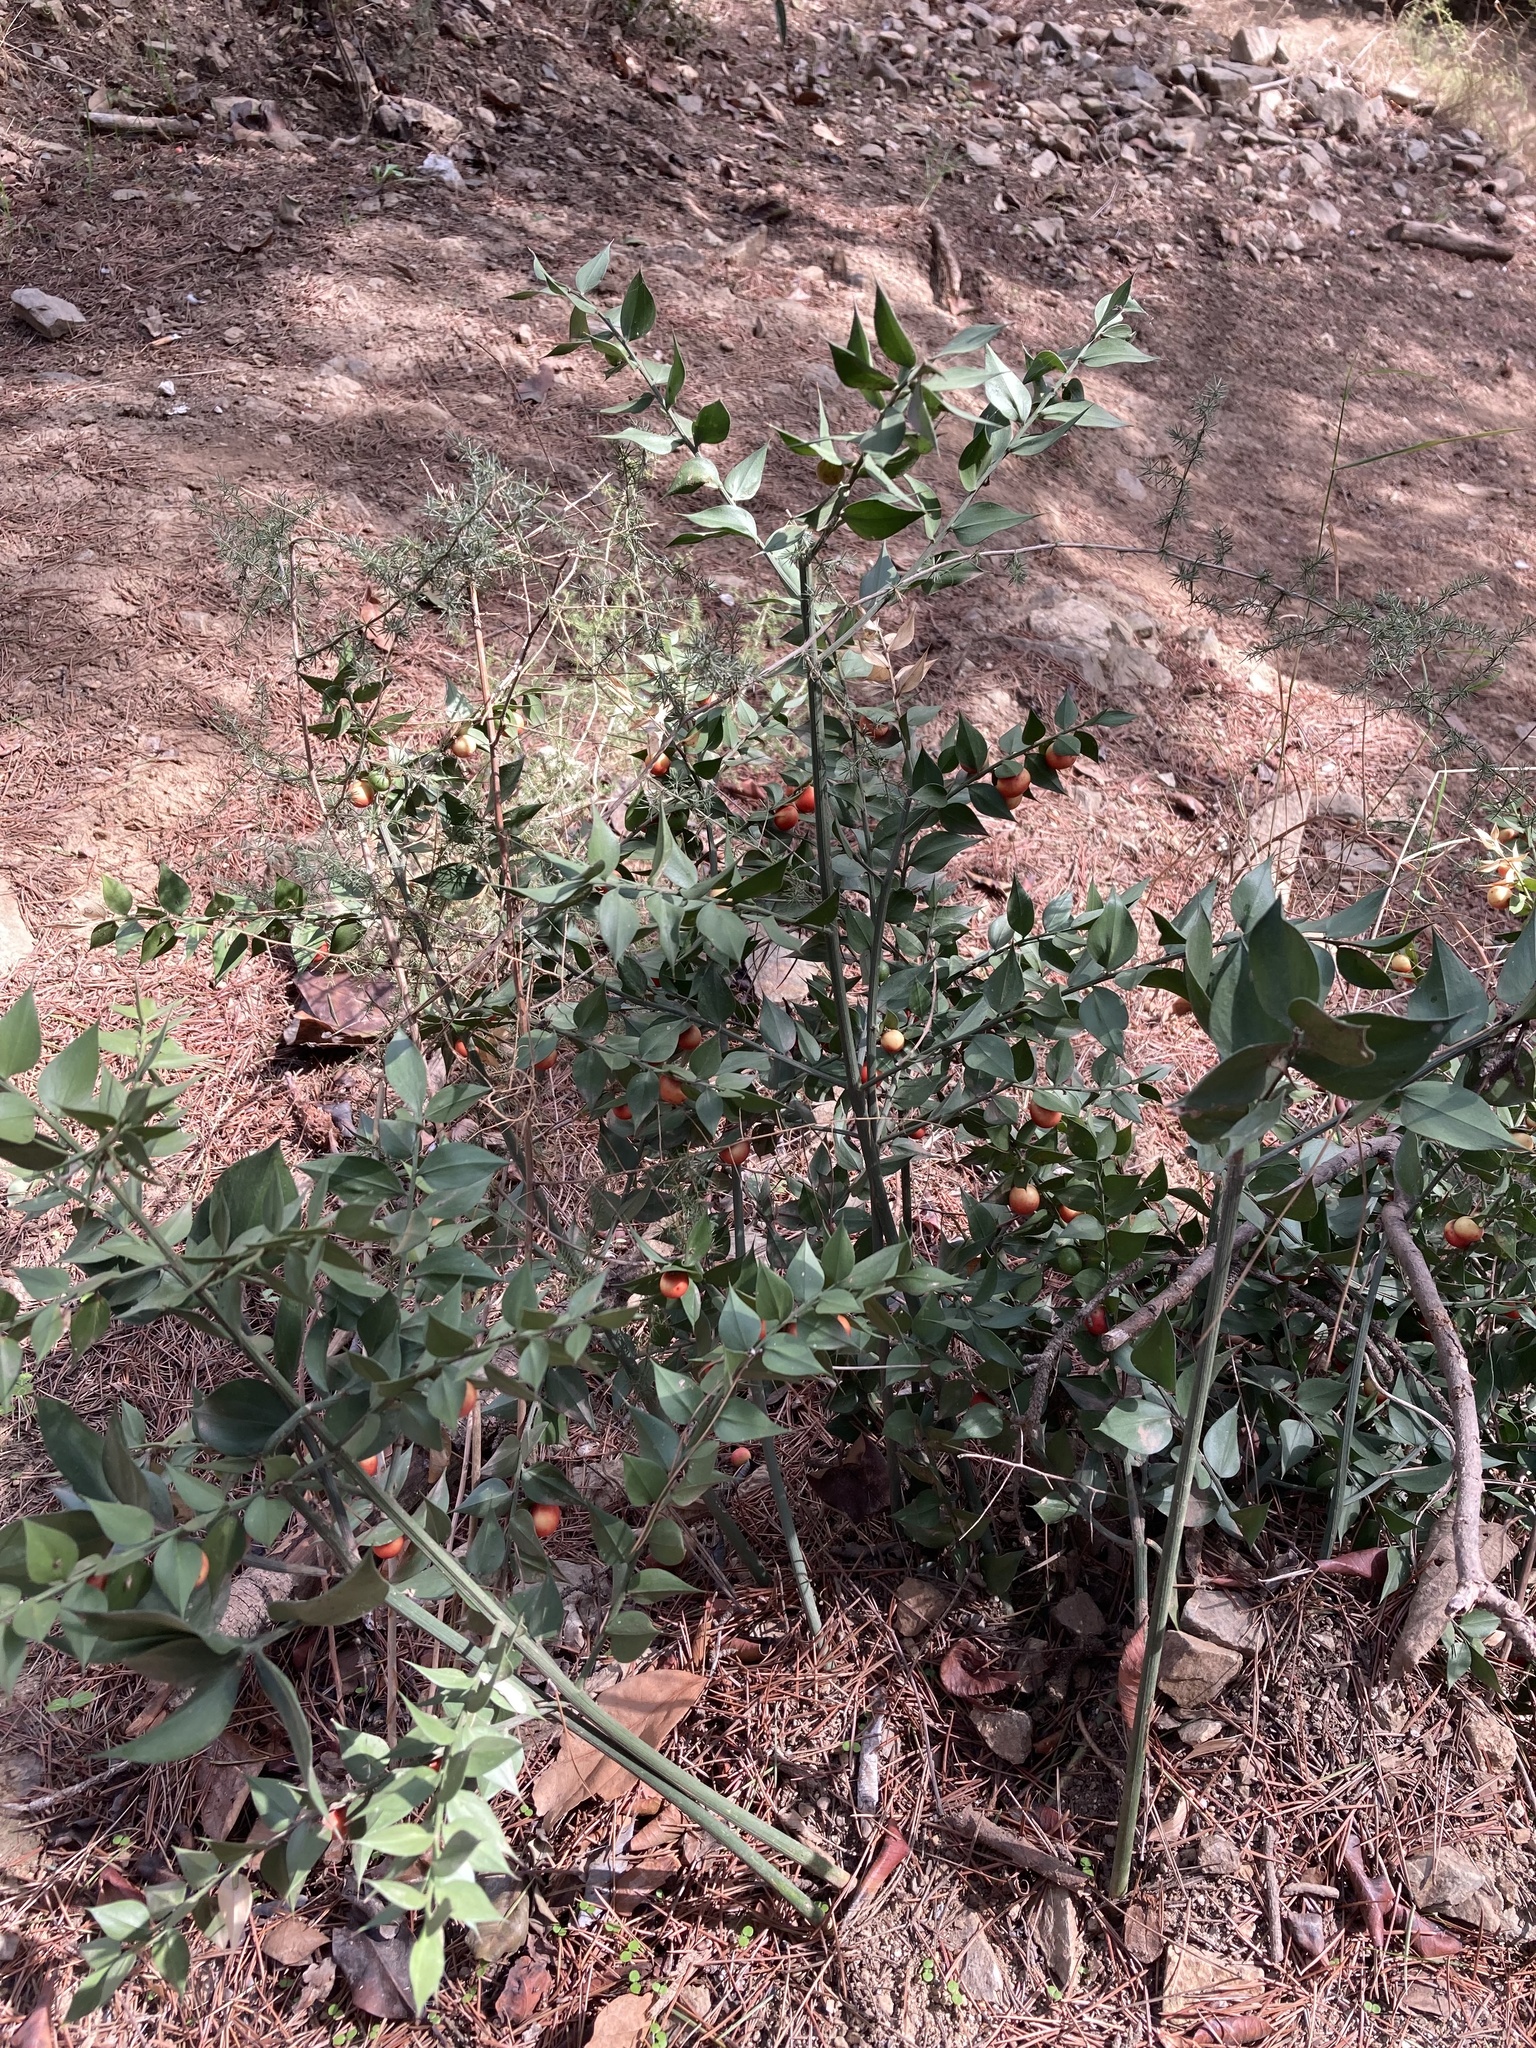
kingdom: Plantae
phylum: Tracheophyta
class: Liliopsida
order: Asparagales
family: Asparagaceae
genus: Ruscus
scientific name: Ruscus aculeatus
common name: Butcher's-broom
